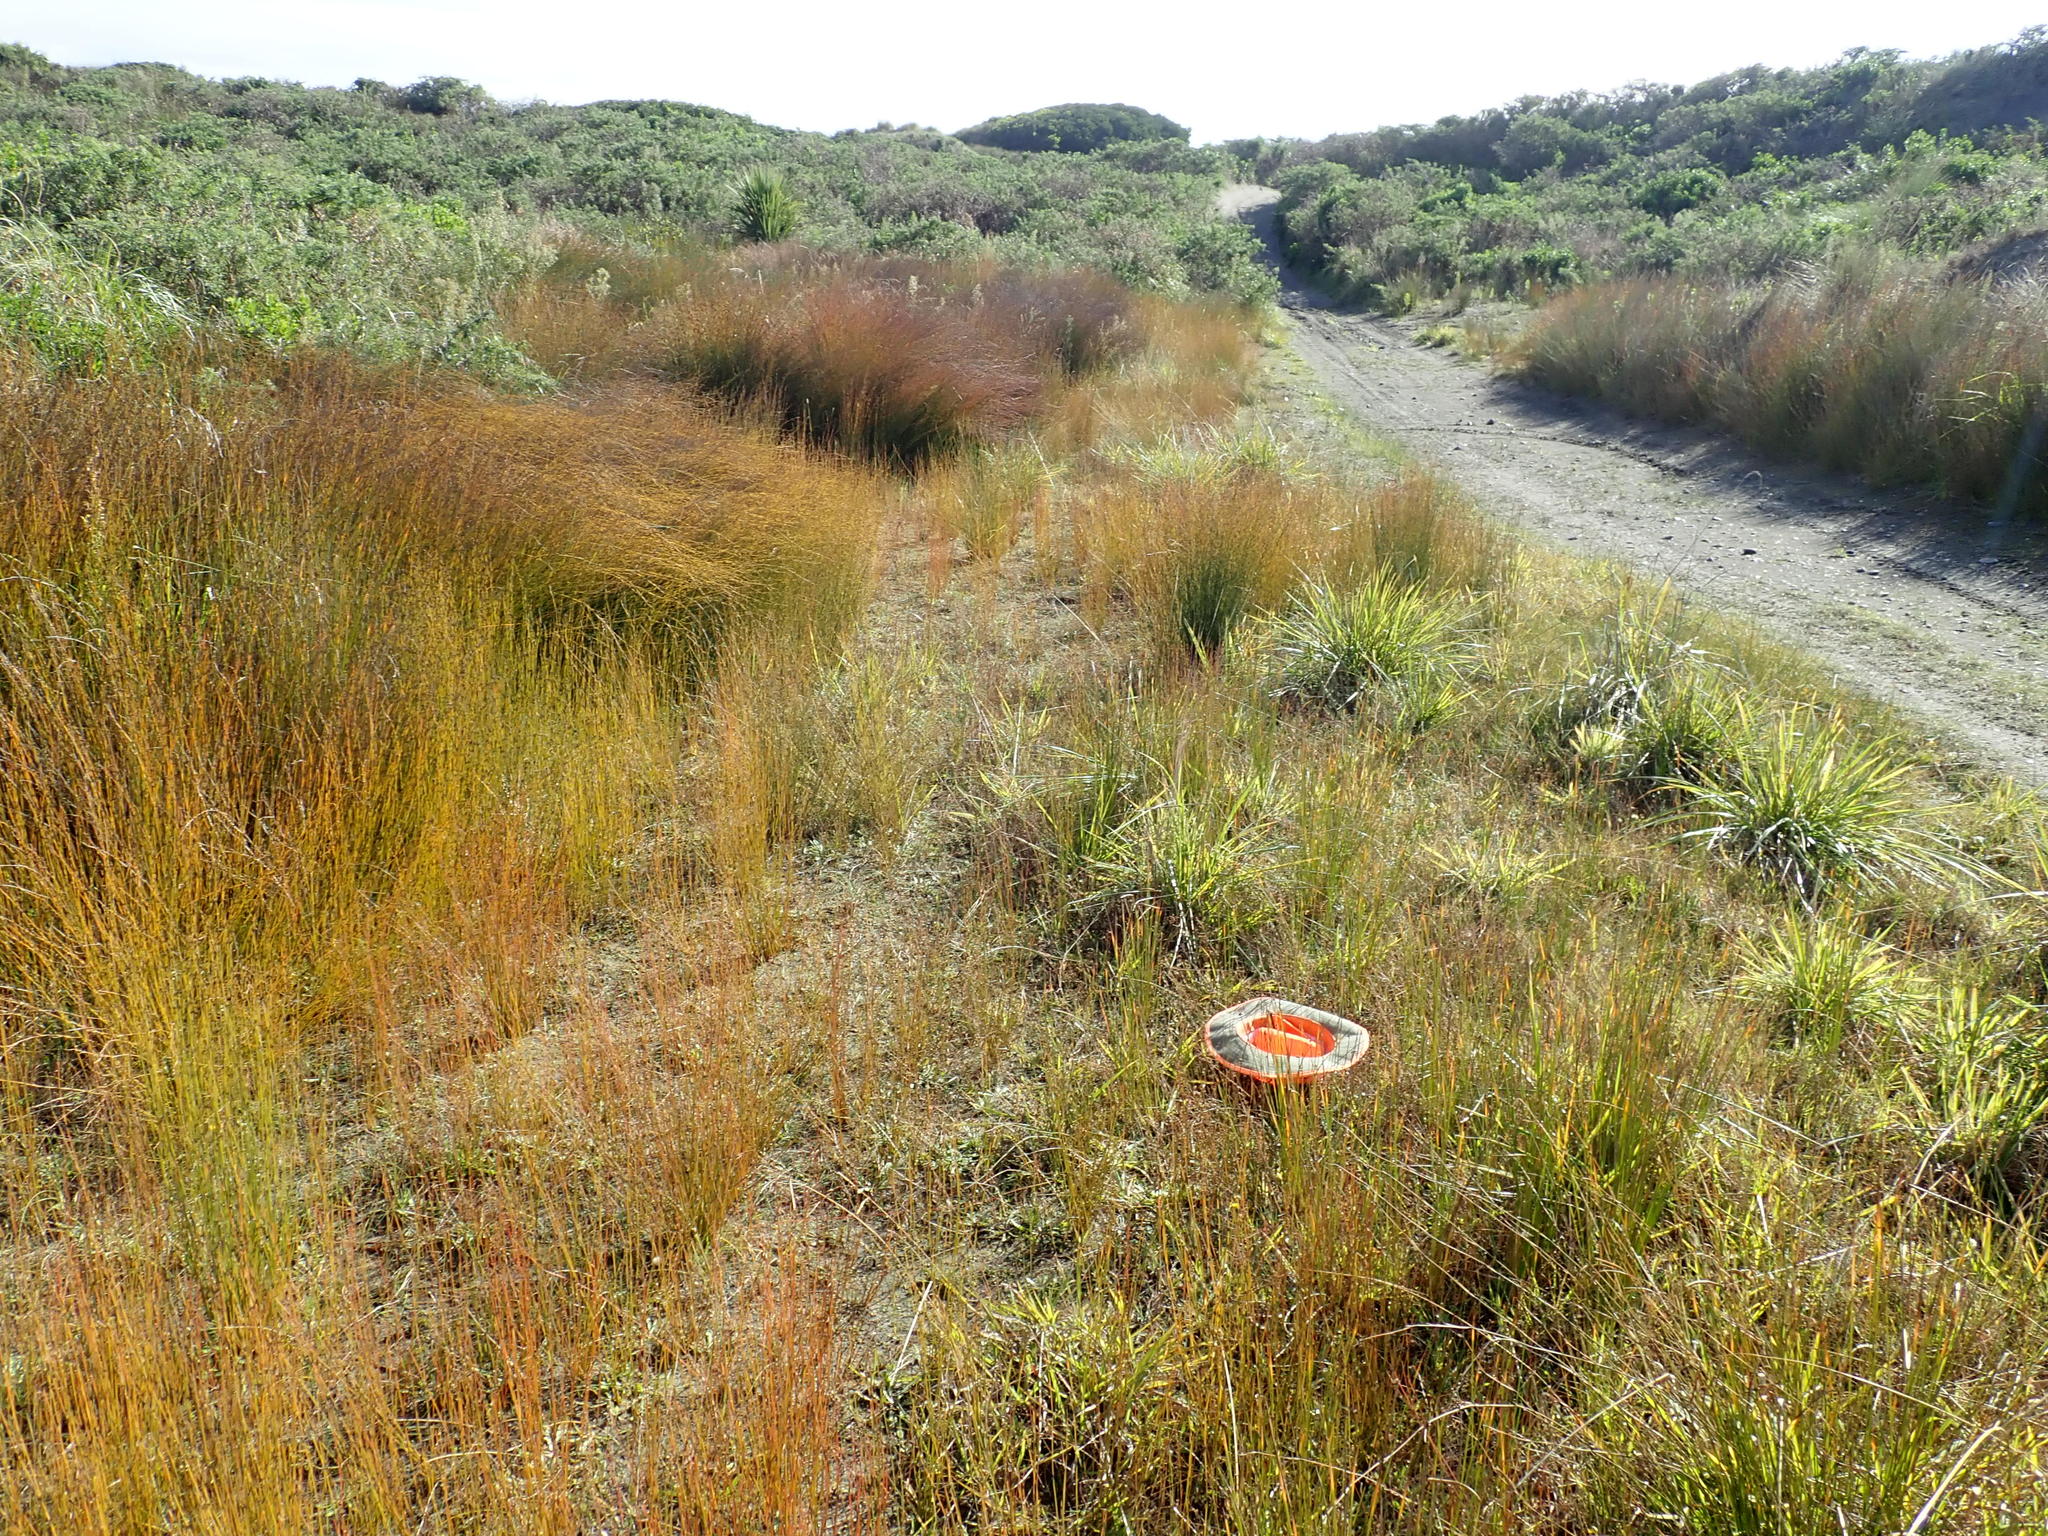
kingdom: Plantae
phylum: Tracheophyta
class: Magnoliopsida
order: Myrtales
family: Onagraceae
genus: Epilobium
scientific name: Epilobium billardiereanum
